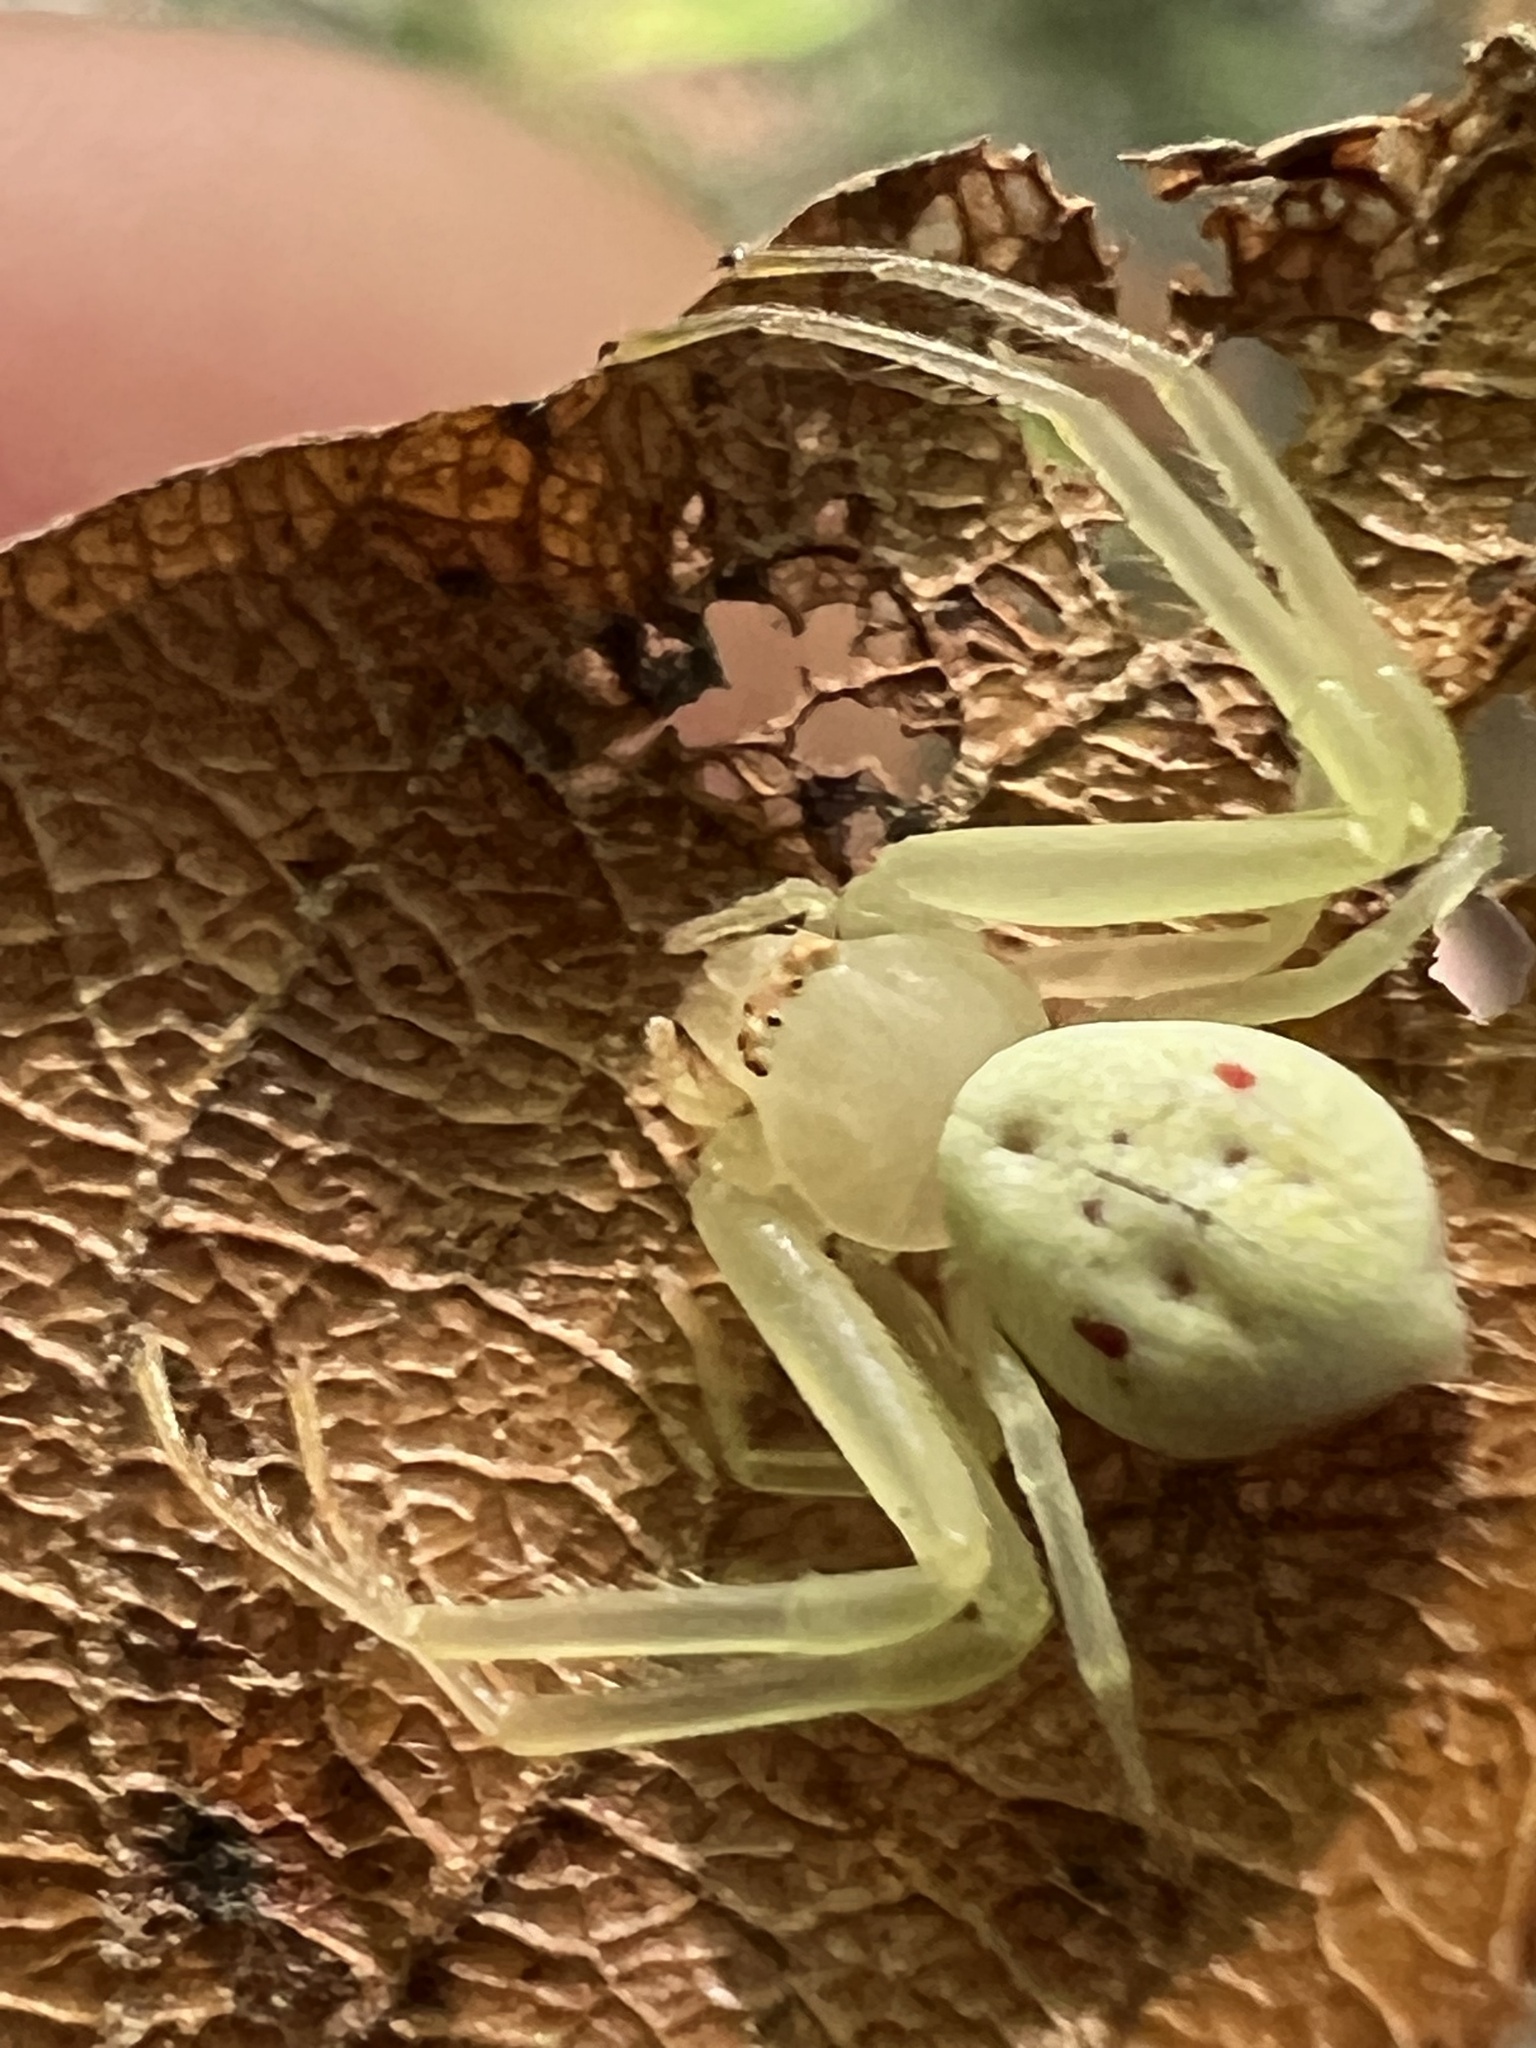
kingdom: Animalia
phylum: Arthropoda
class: Arachnida
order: Araneae
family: Thomisidae
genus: Misumessus
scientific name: Misumessus oblongus
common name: American green crab spider
